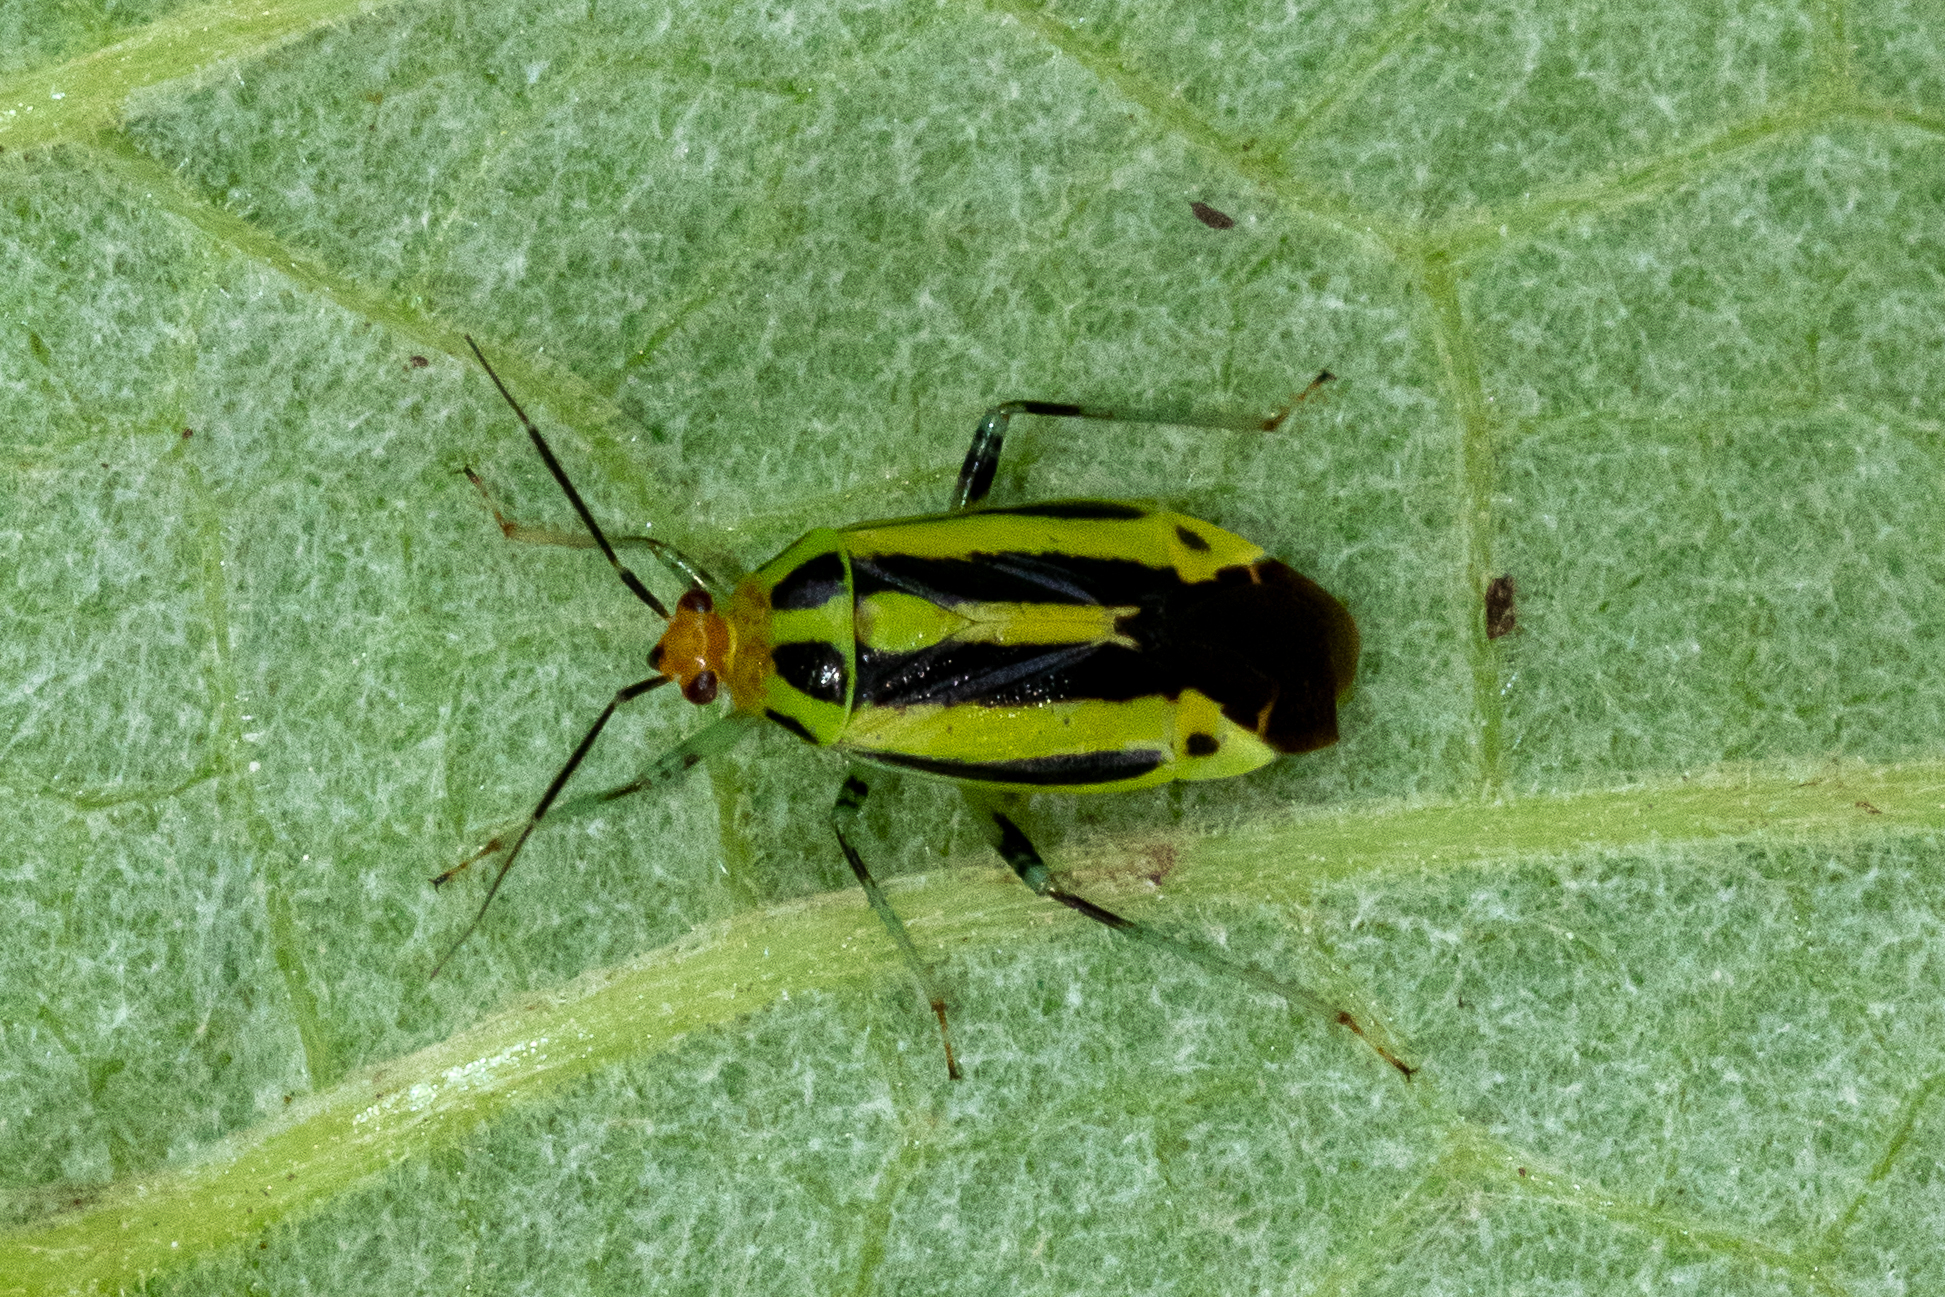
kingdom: Animalia
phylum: Arthropoda
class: Insecta
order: Hemiptera
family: Miridae
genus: Poecilocapsus
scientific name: Poecilocapsus lineatus
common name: Four-lined plant bug
